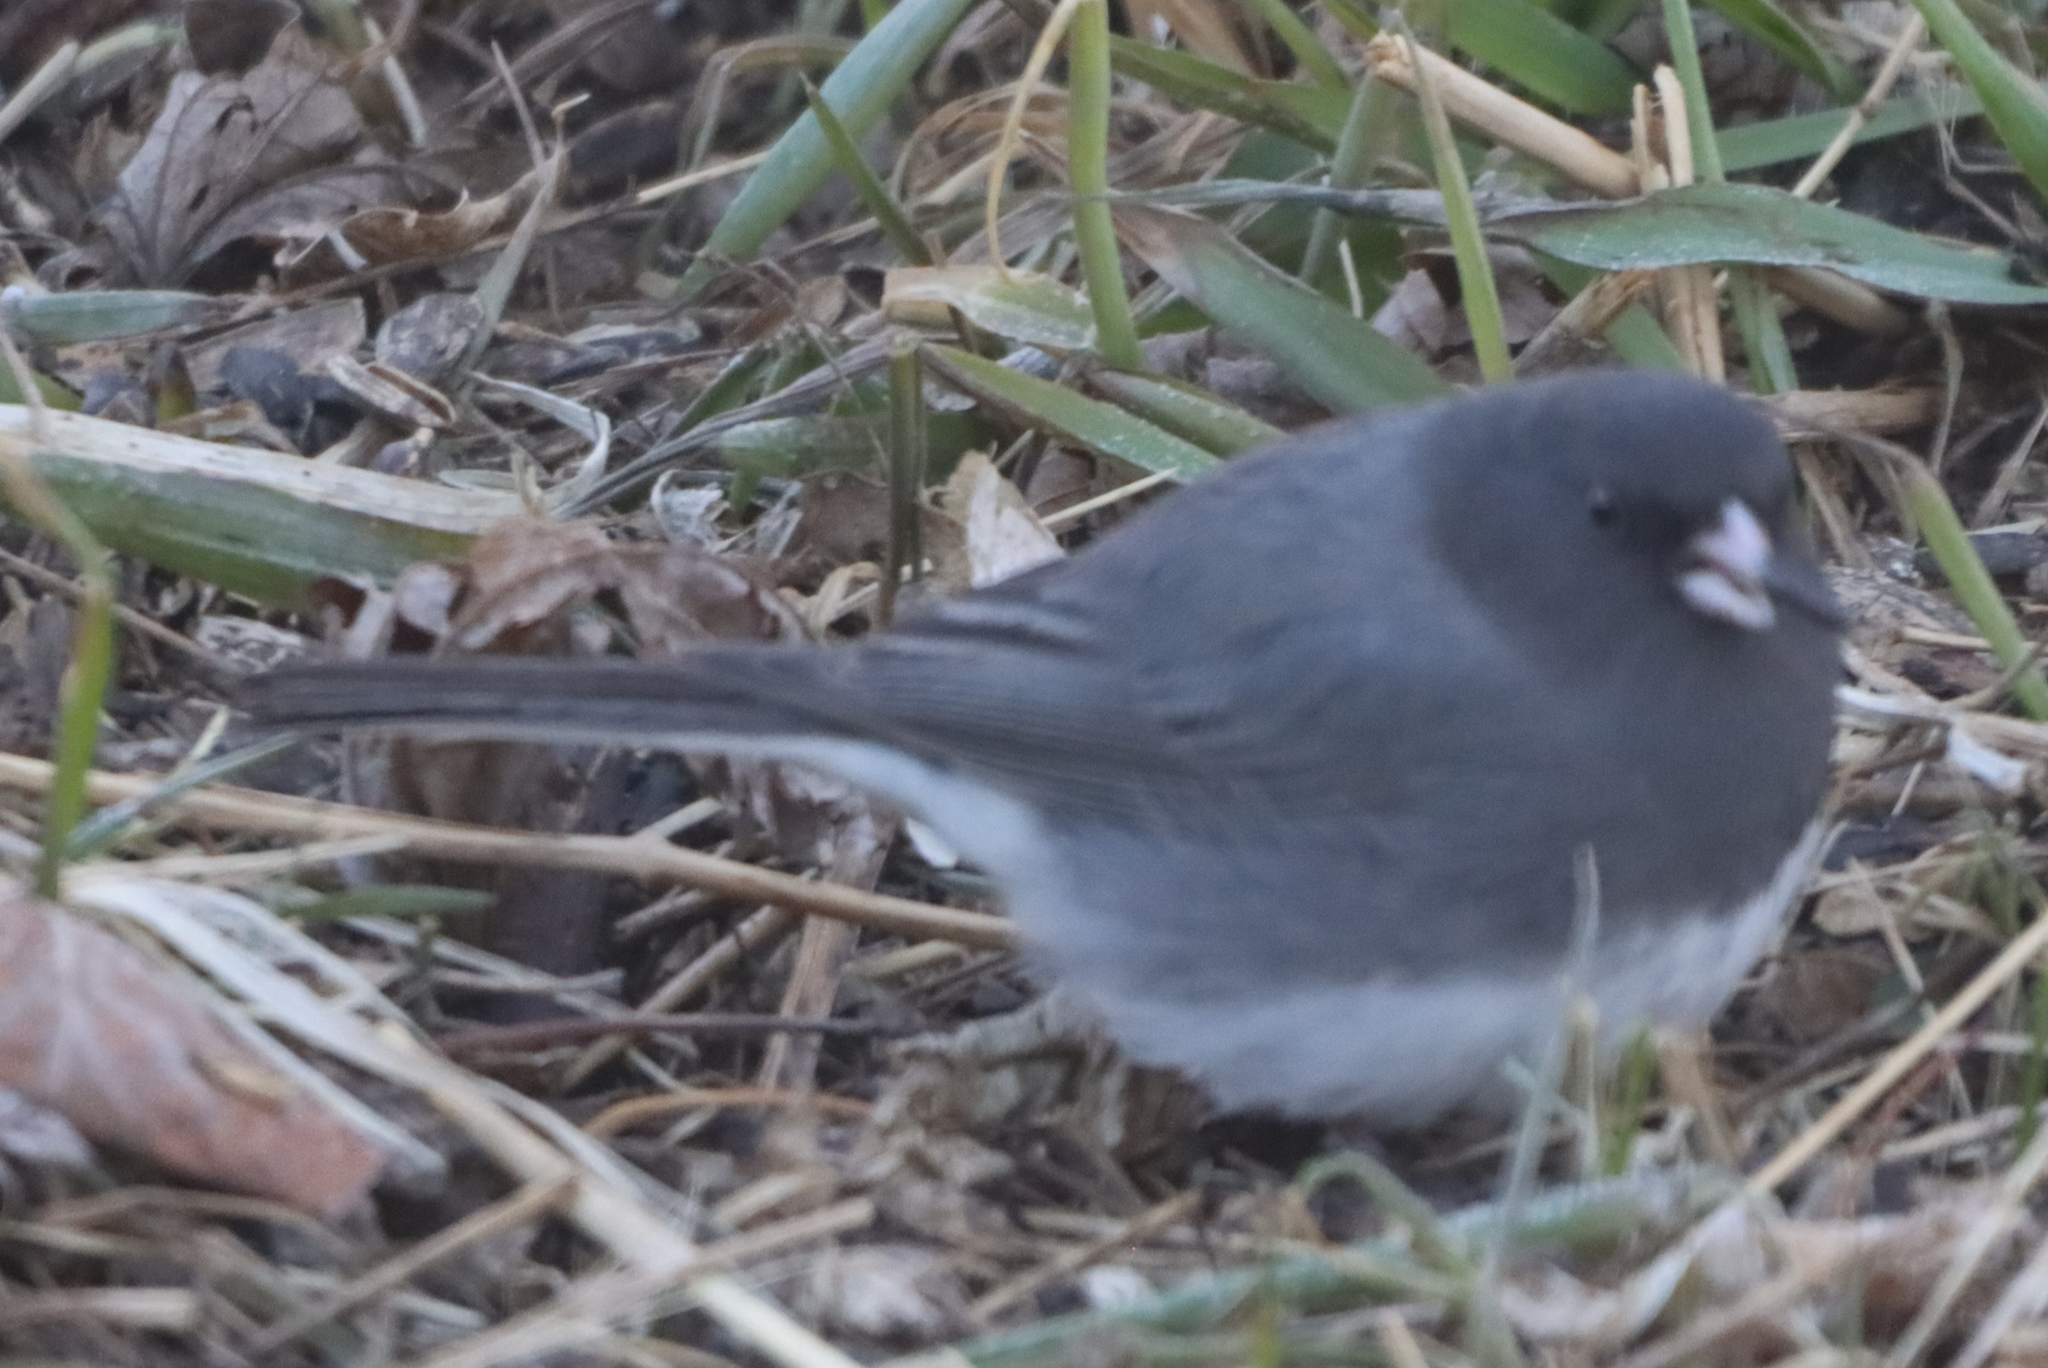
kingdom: Animalia
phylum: Chordata
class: Aves
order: Passeriformes
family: Passerellidae
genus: Junco
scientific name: Junco hyemalis
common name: Dark-eyed junco
